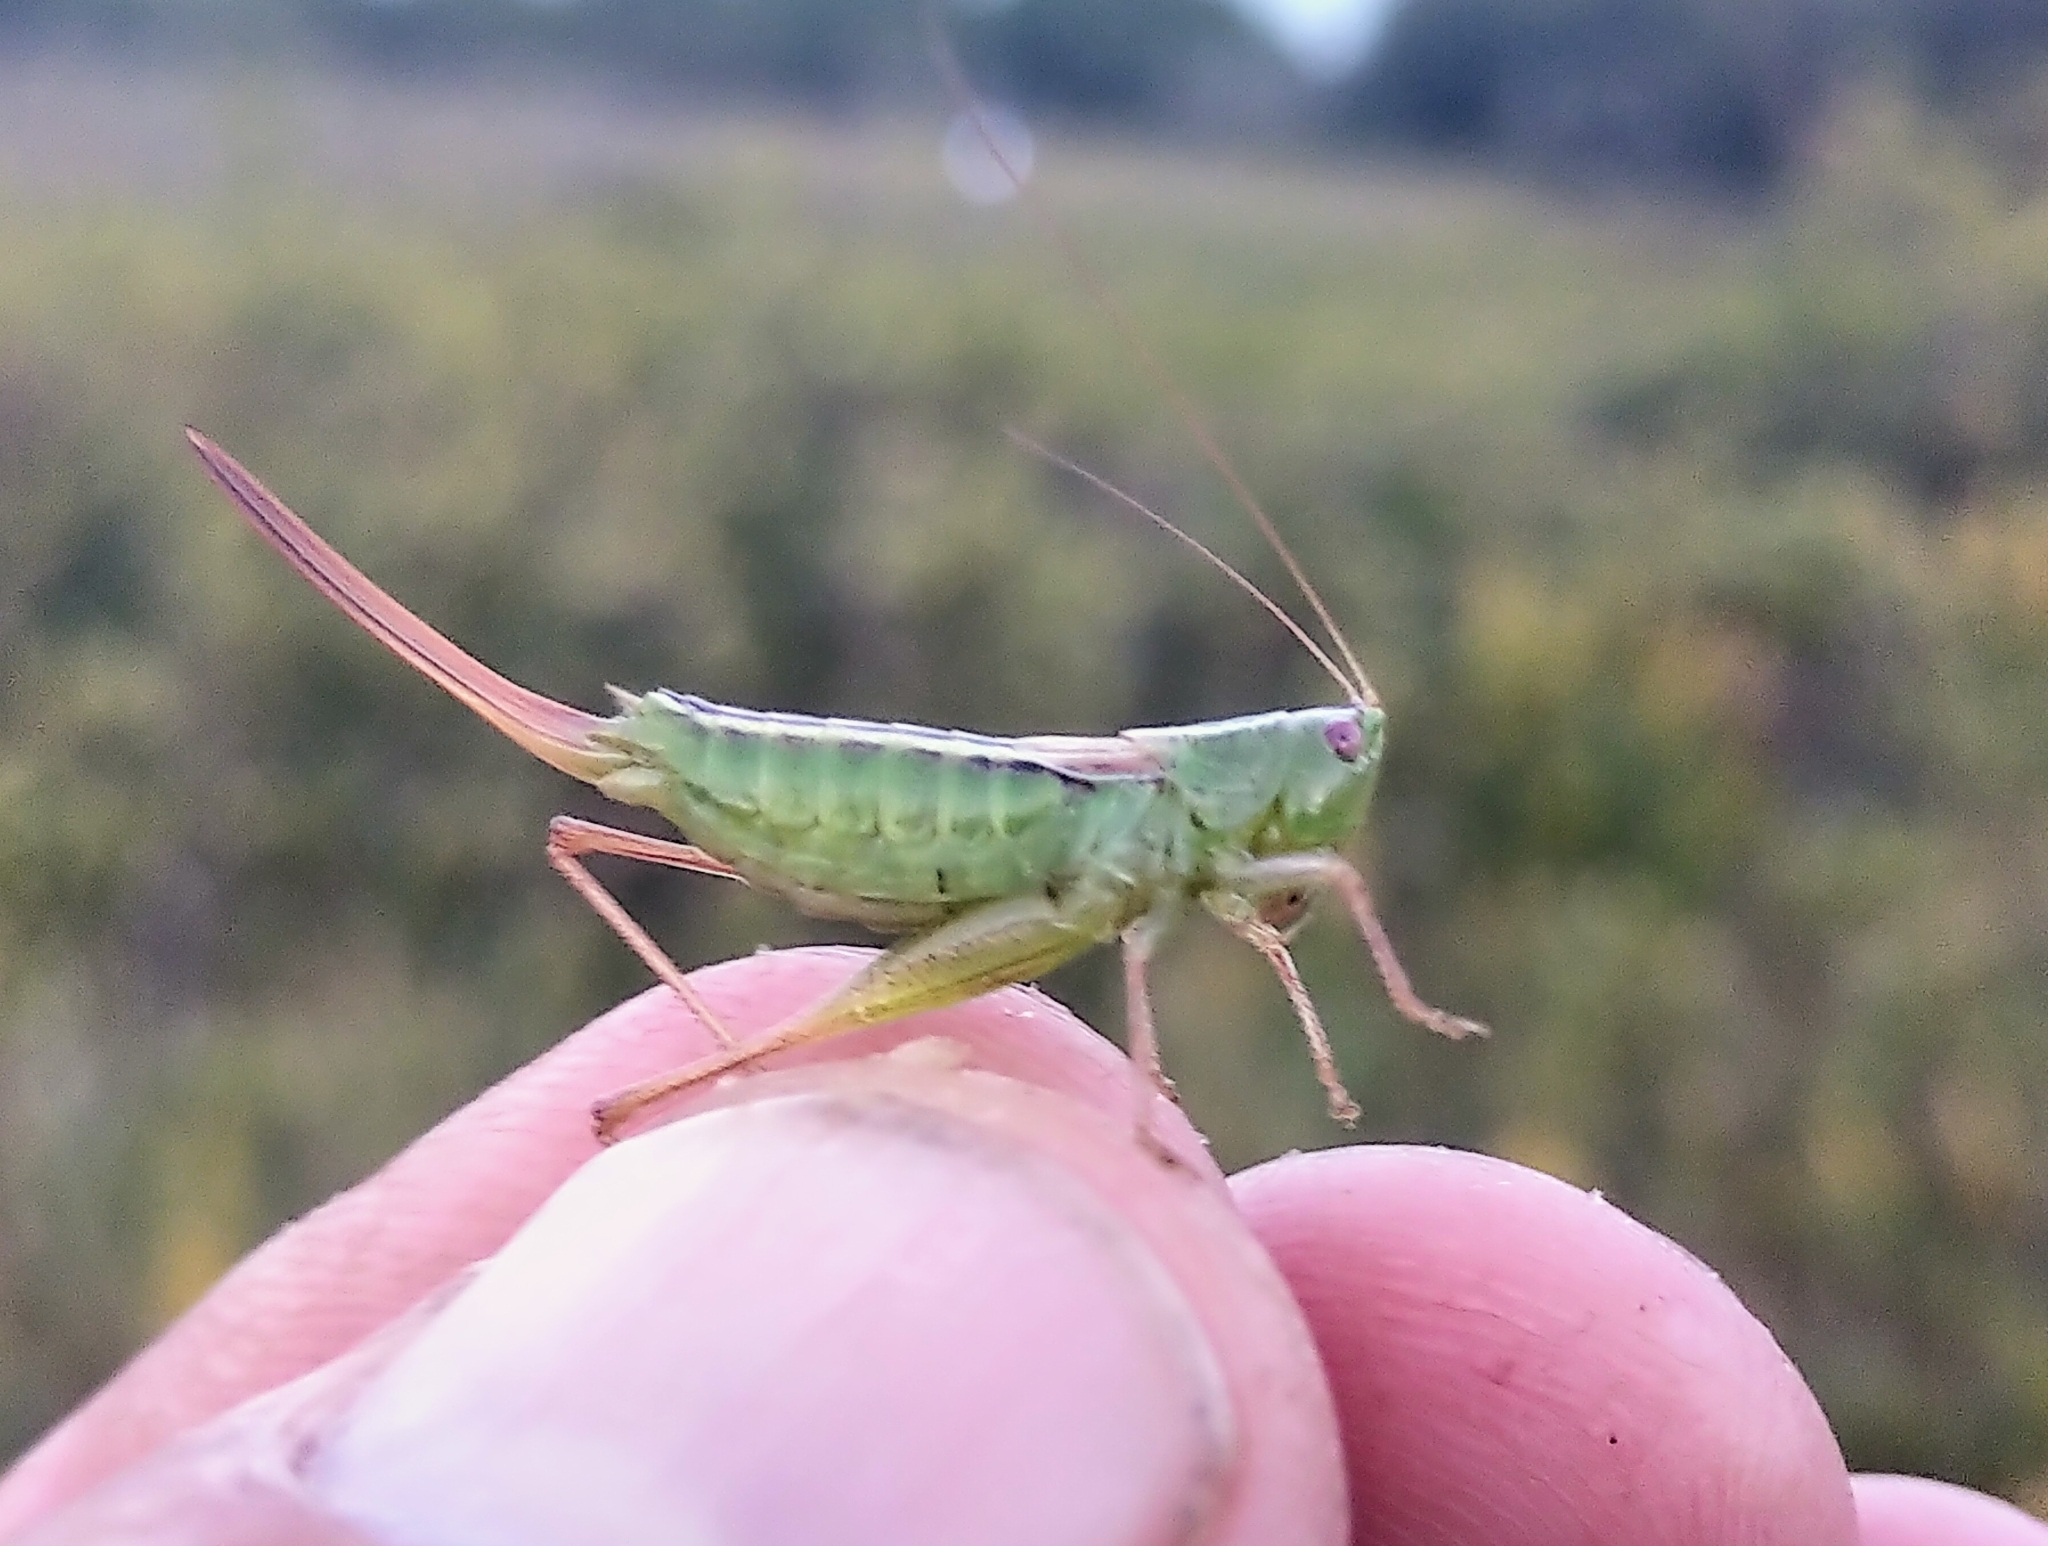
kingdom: Animalia
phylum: Arthropoda
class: Insecta
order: Orthoptera
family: Tettigoniidae
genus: Conocephalus
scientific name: Conocephalus saltans
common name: Prairie meadow katydid
